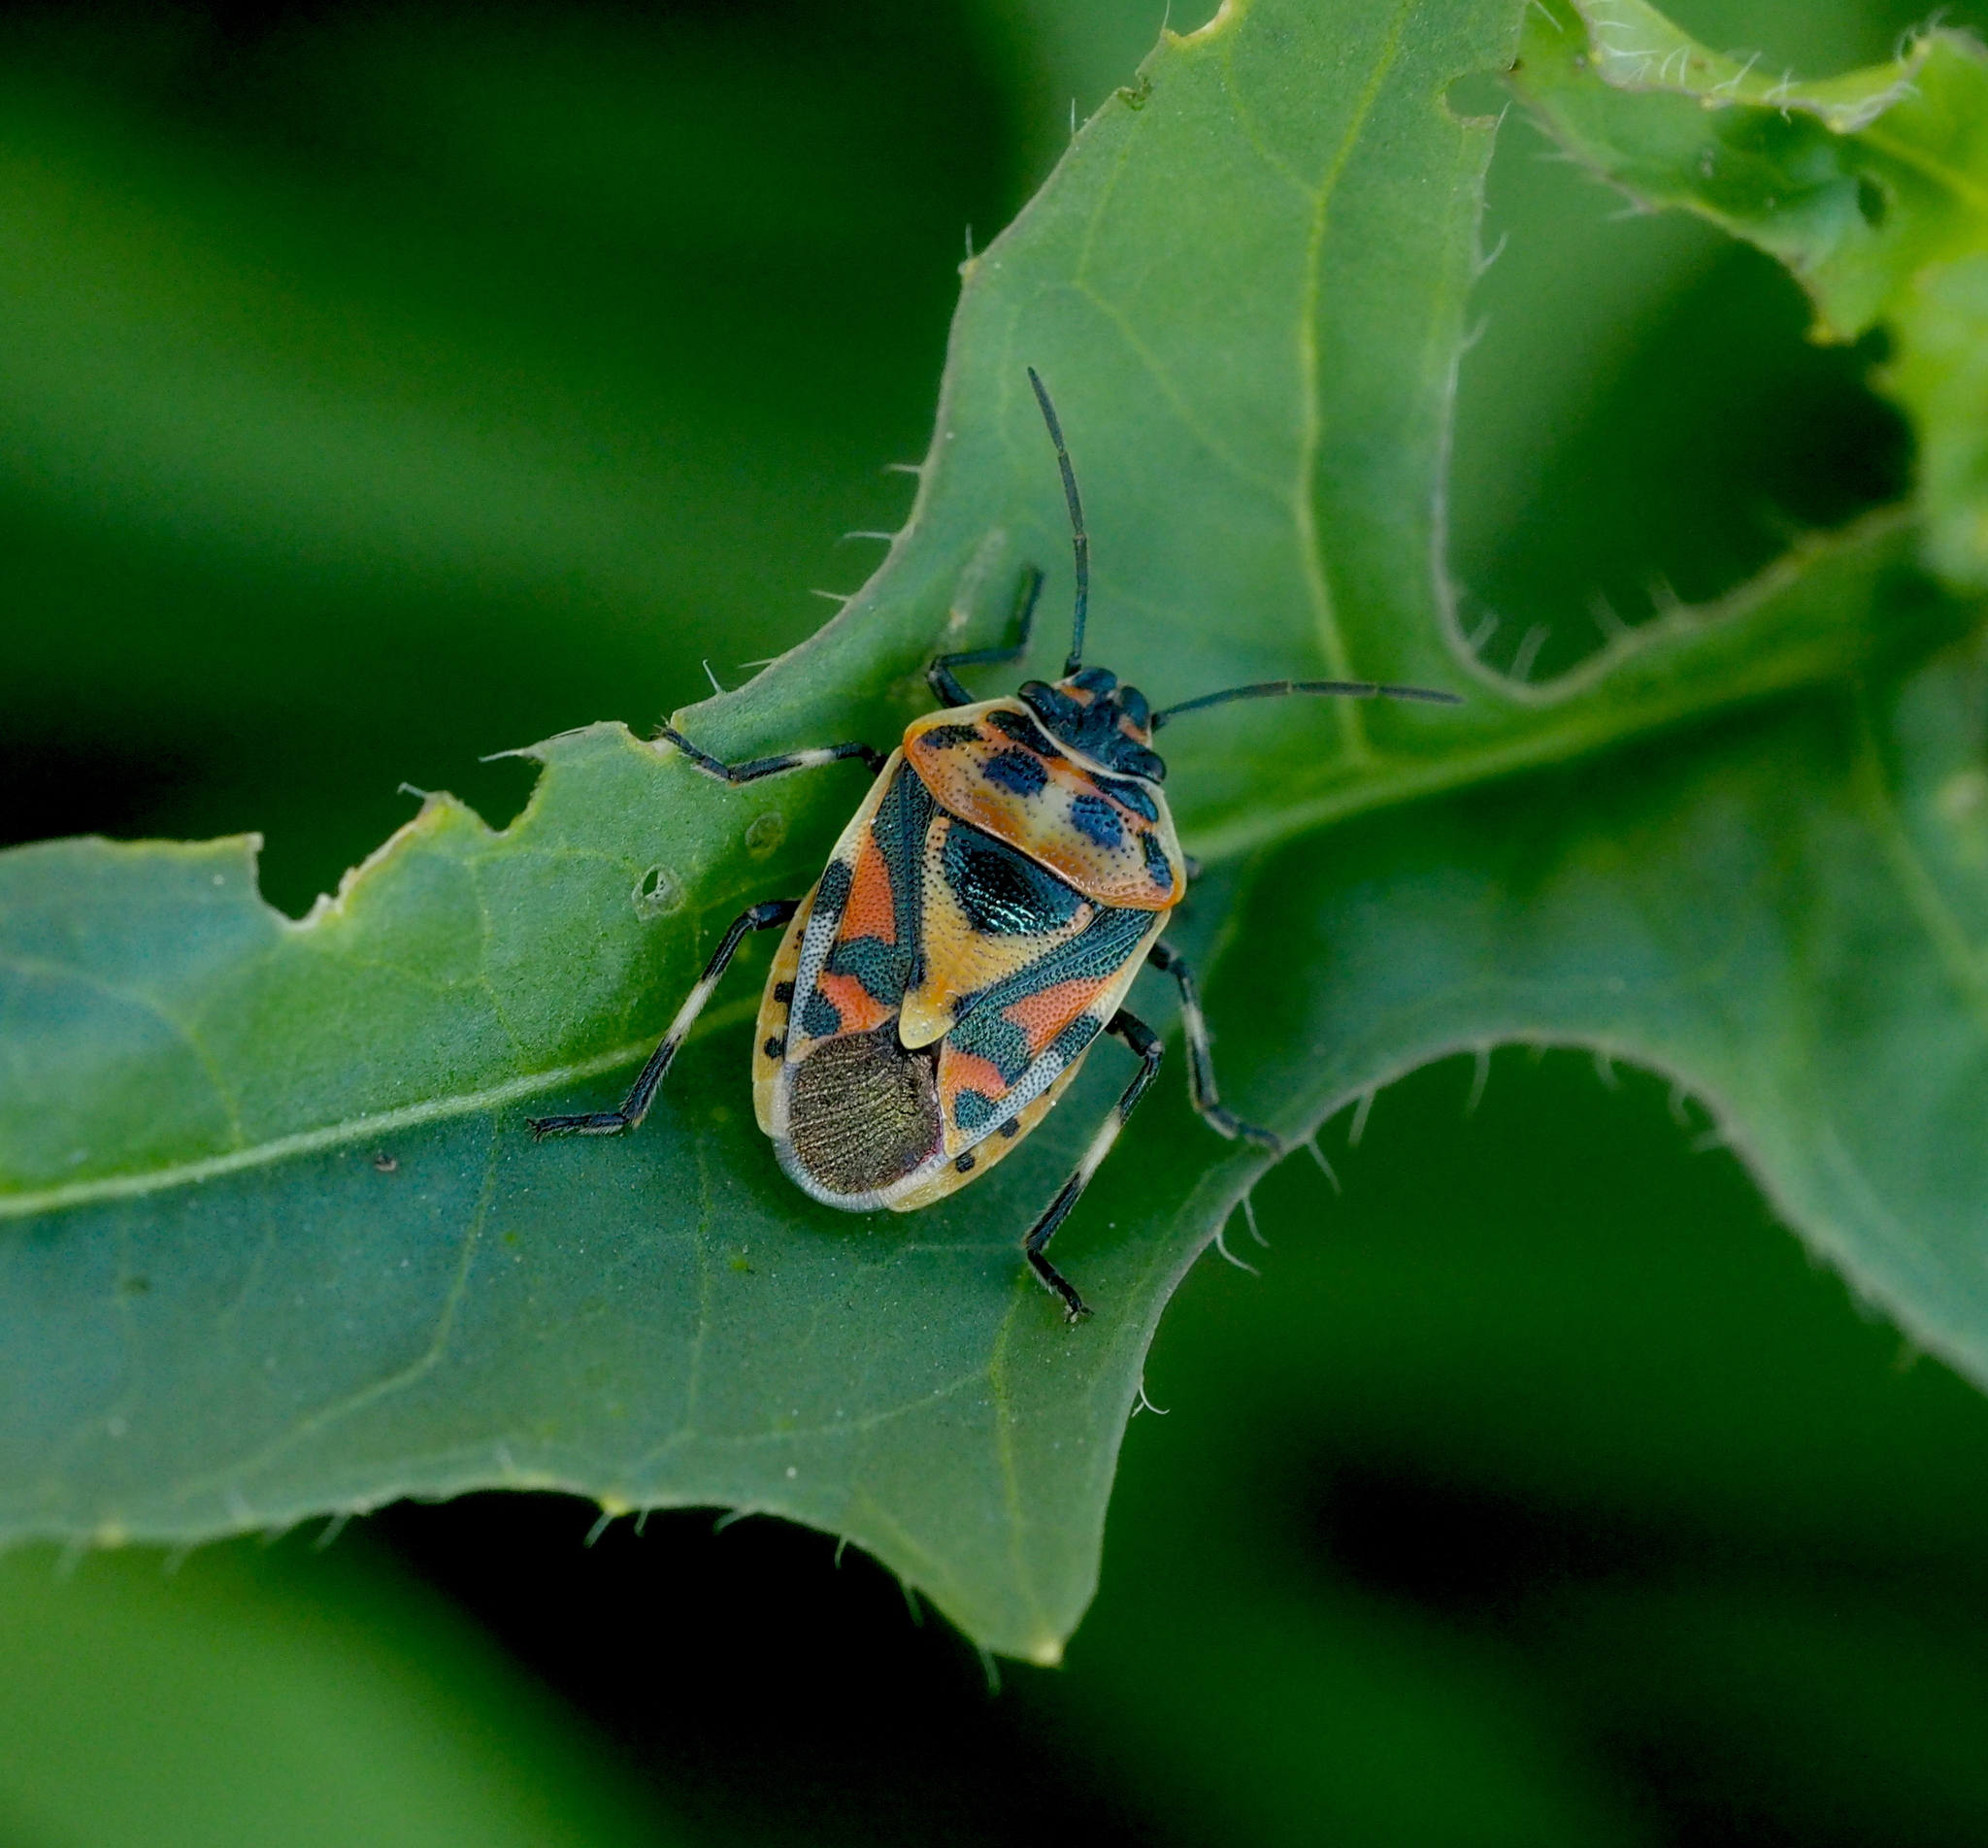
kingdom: Animalia
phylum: Arthropoda
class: Insecta
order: Hemiptera
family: Pentatomidae
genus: Eurydema
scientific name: Eurydema ornata
